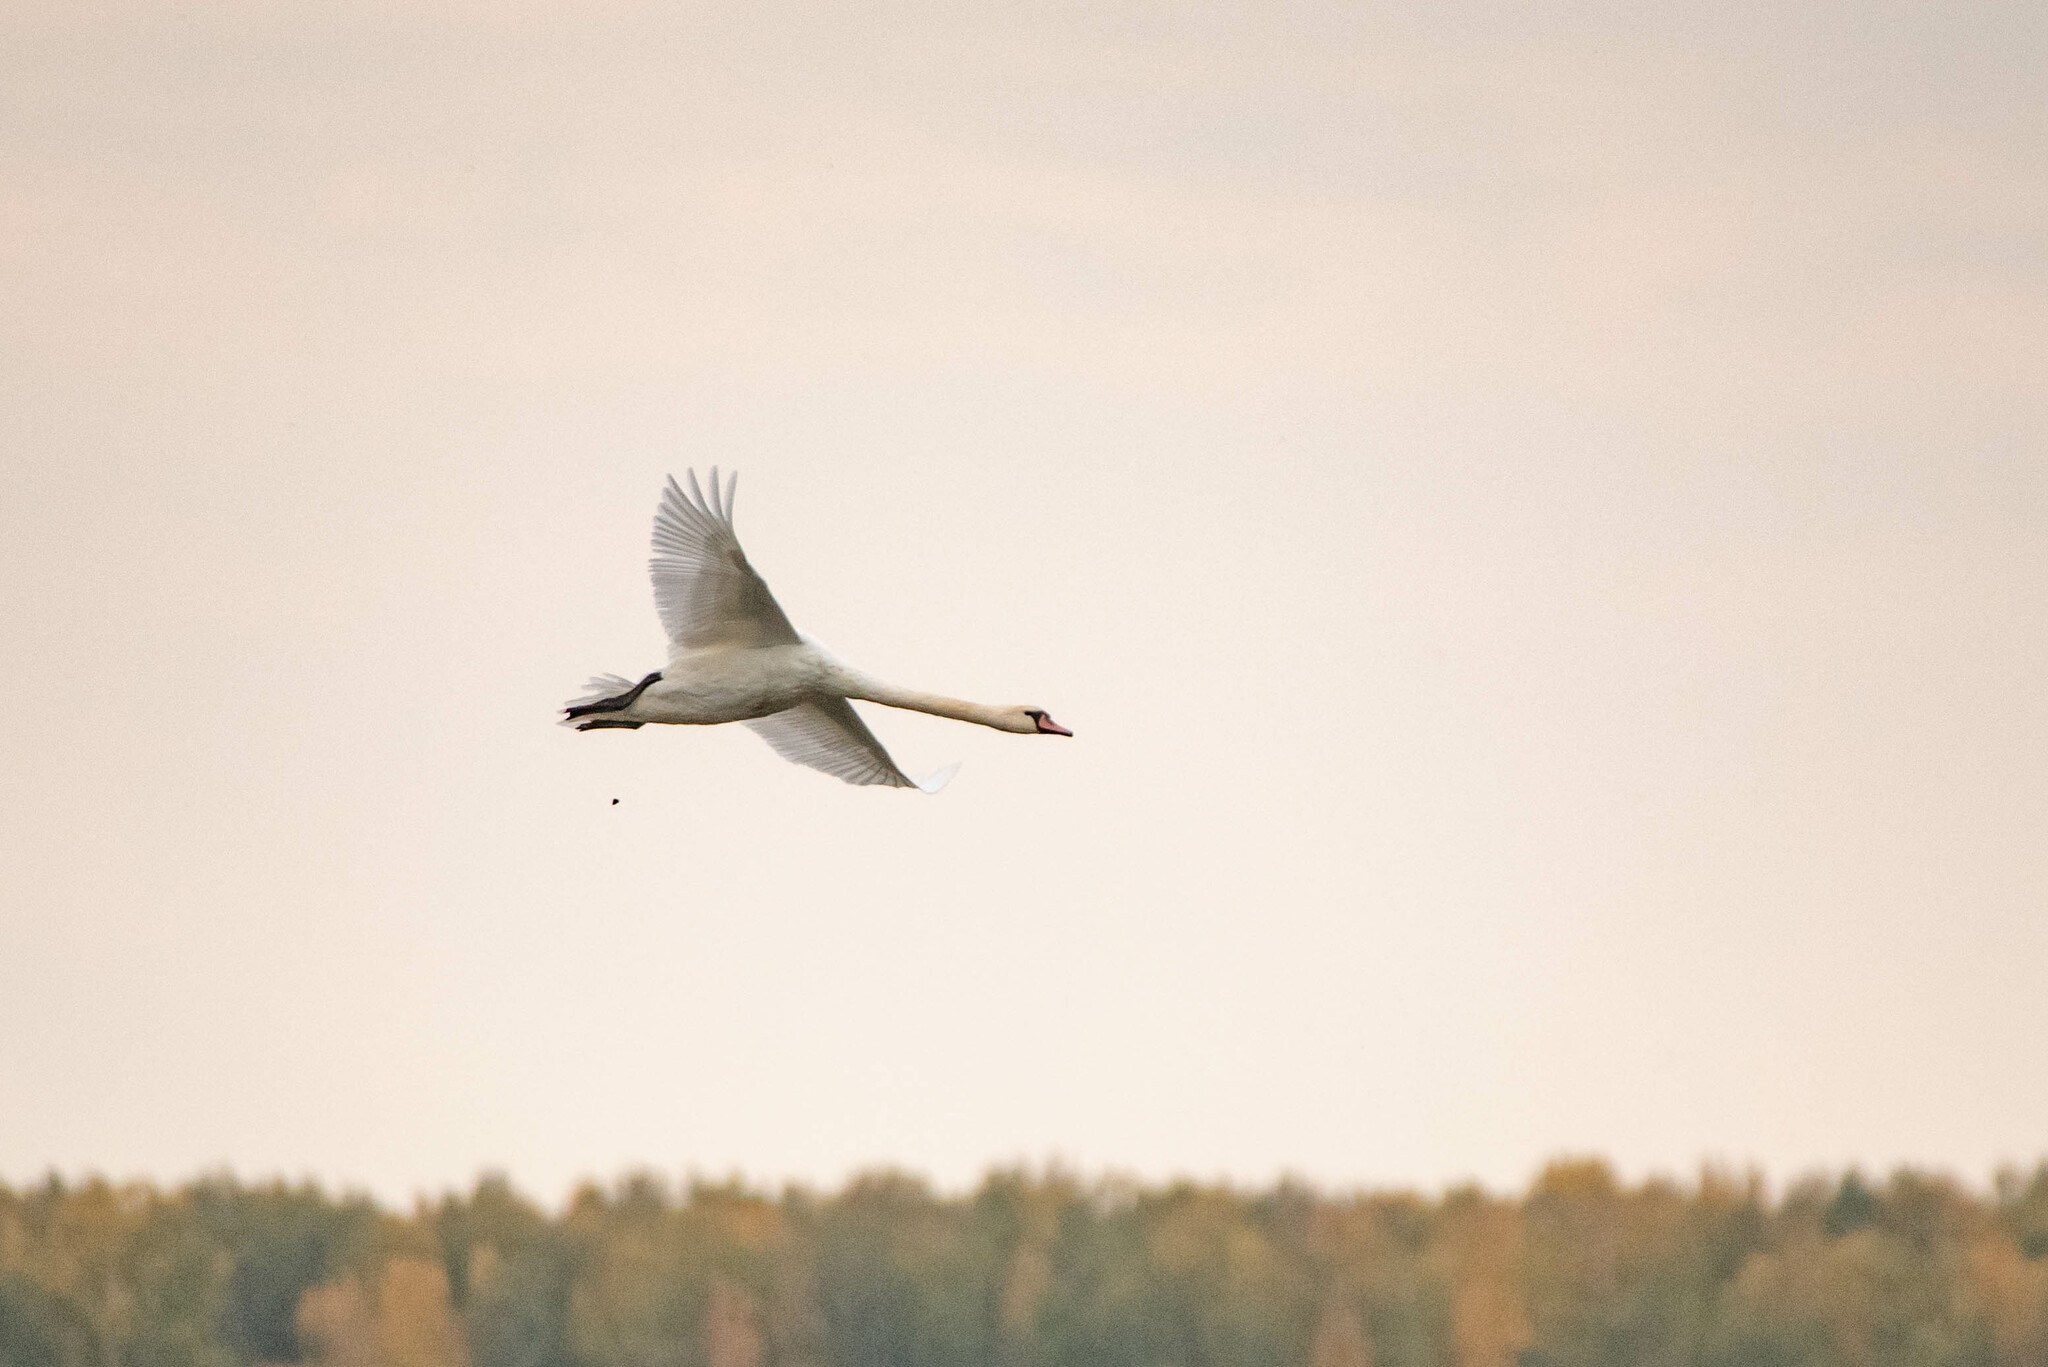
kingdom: Animalia
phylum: Chordata
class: Aves
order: Anseriformes
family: Anatidae
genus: Cygnus
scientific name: Cygnus olor
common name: Mute swan
